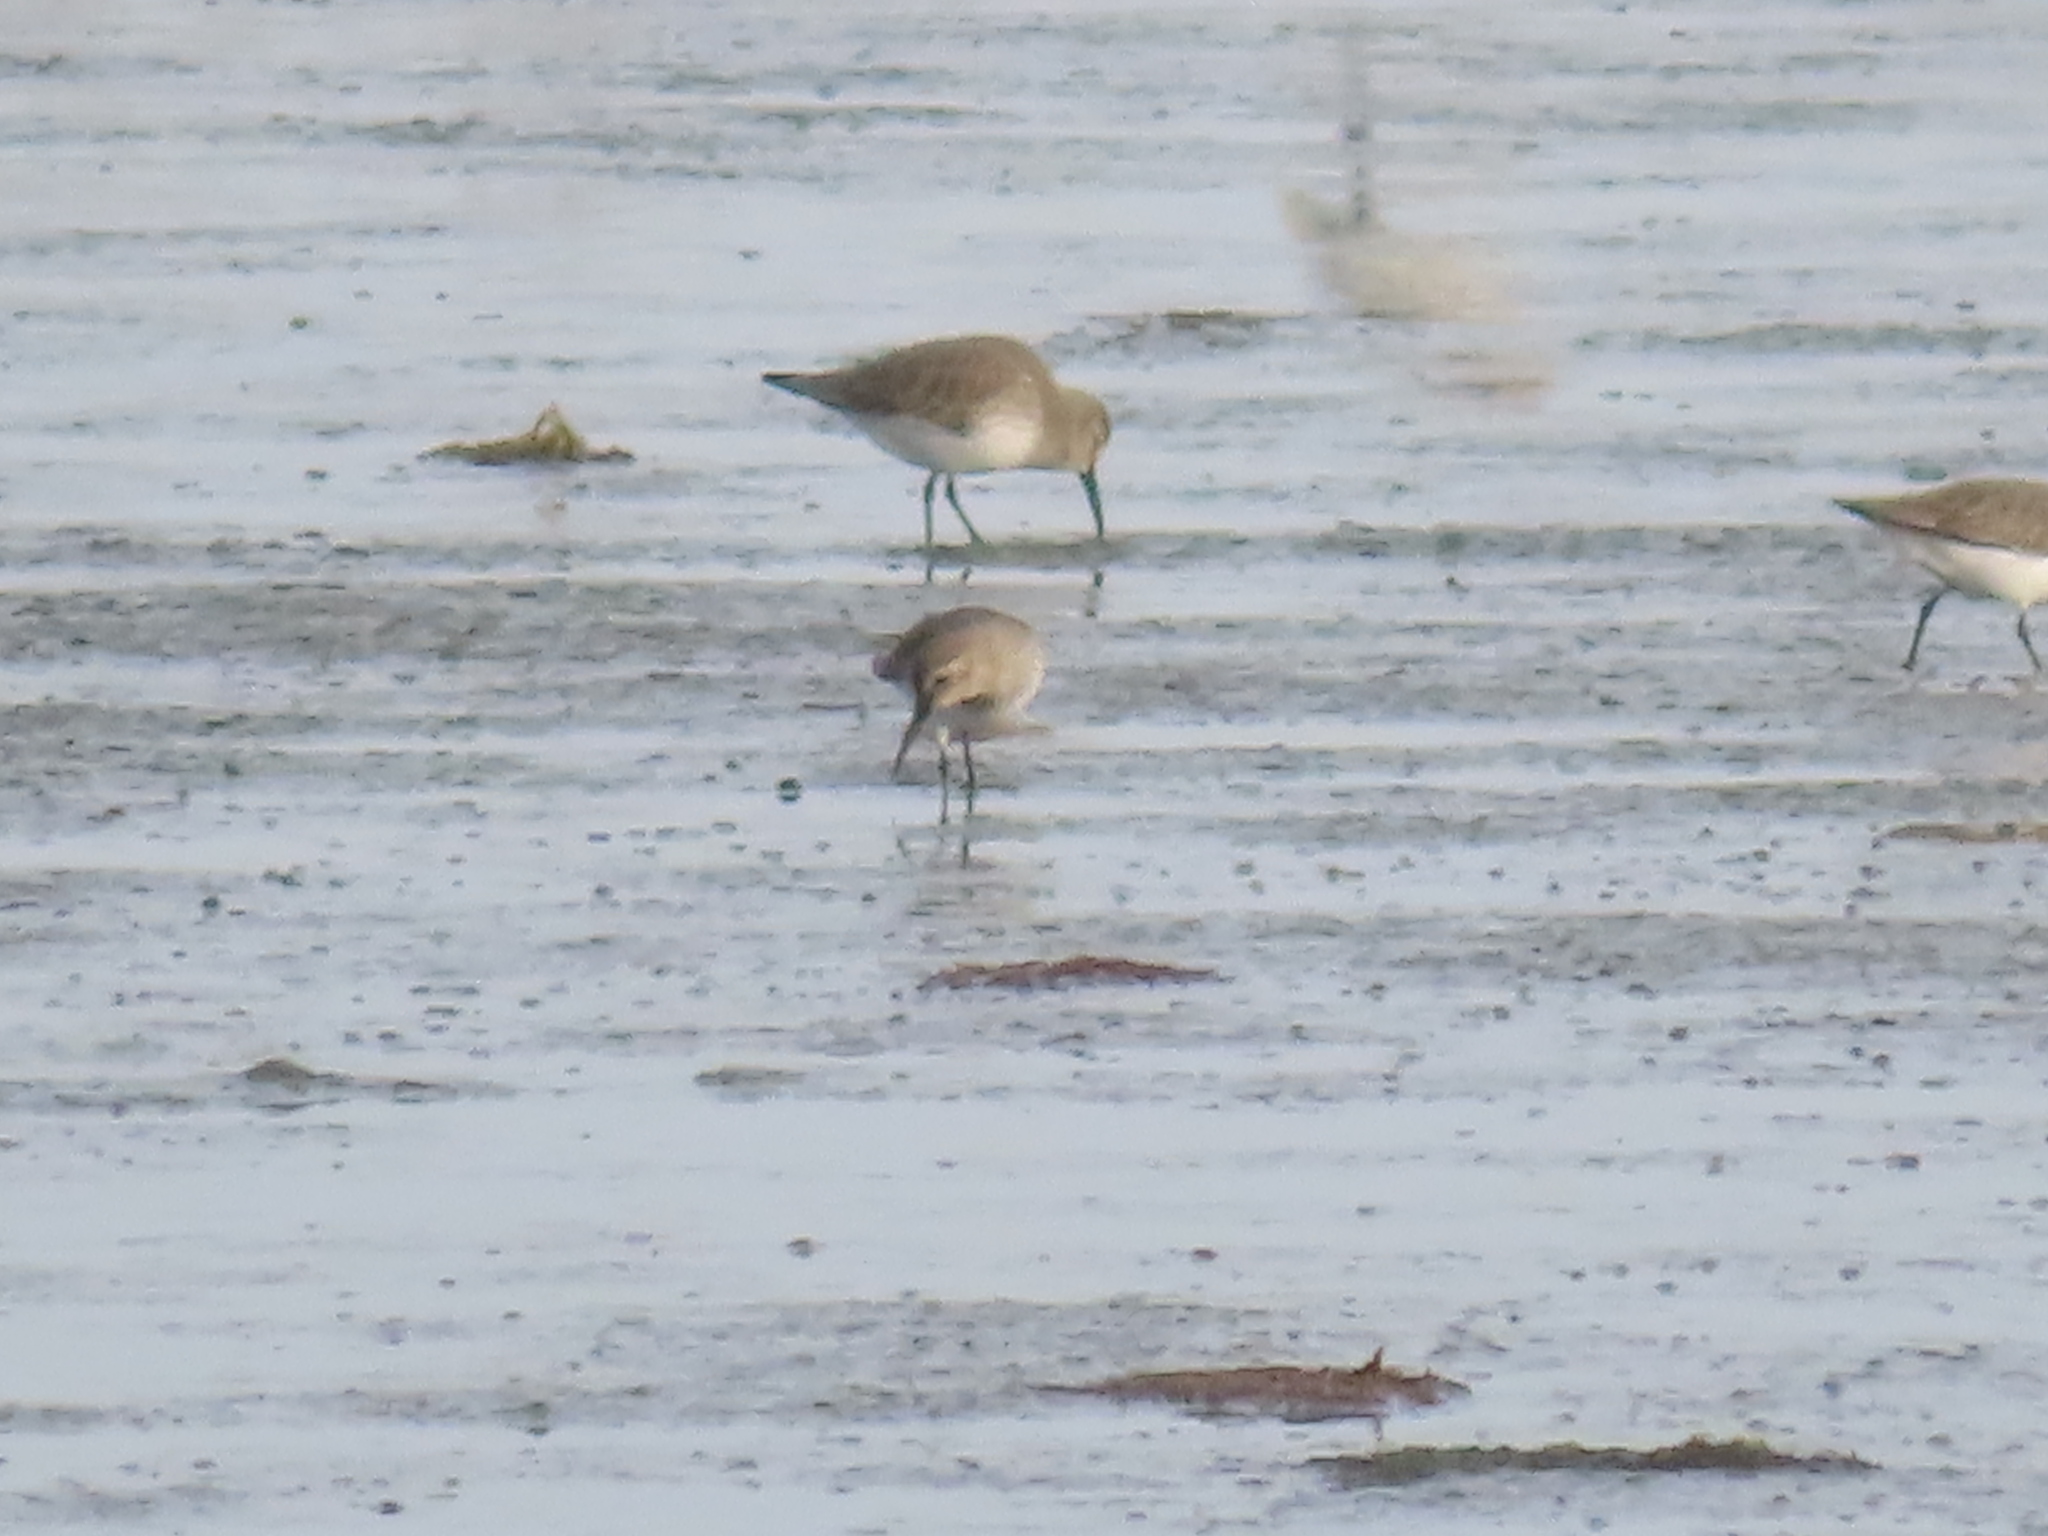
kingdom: Animalia
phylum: Chordata
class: Aves
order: Charadriiformes
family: Scolopacidae
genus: Calidris
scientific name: Calidris alpina
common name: Dunlin
